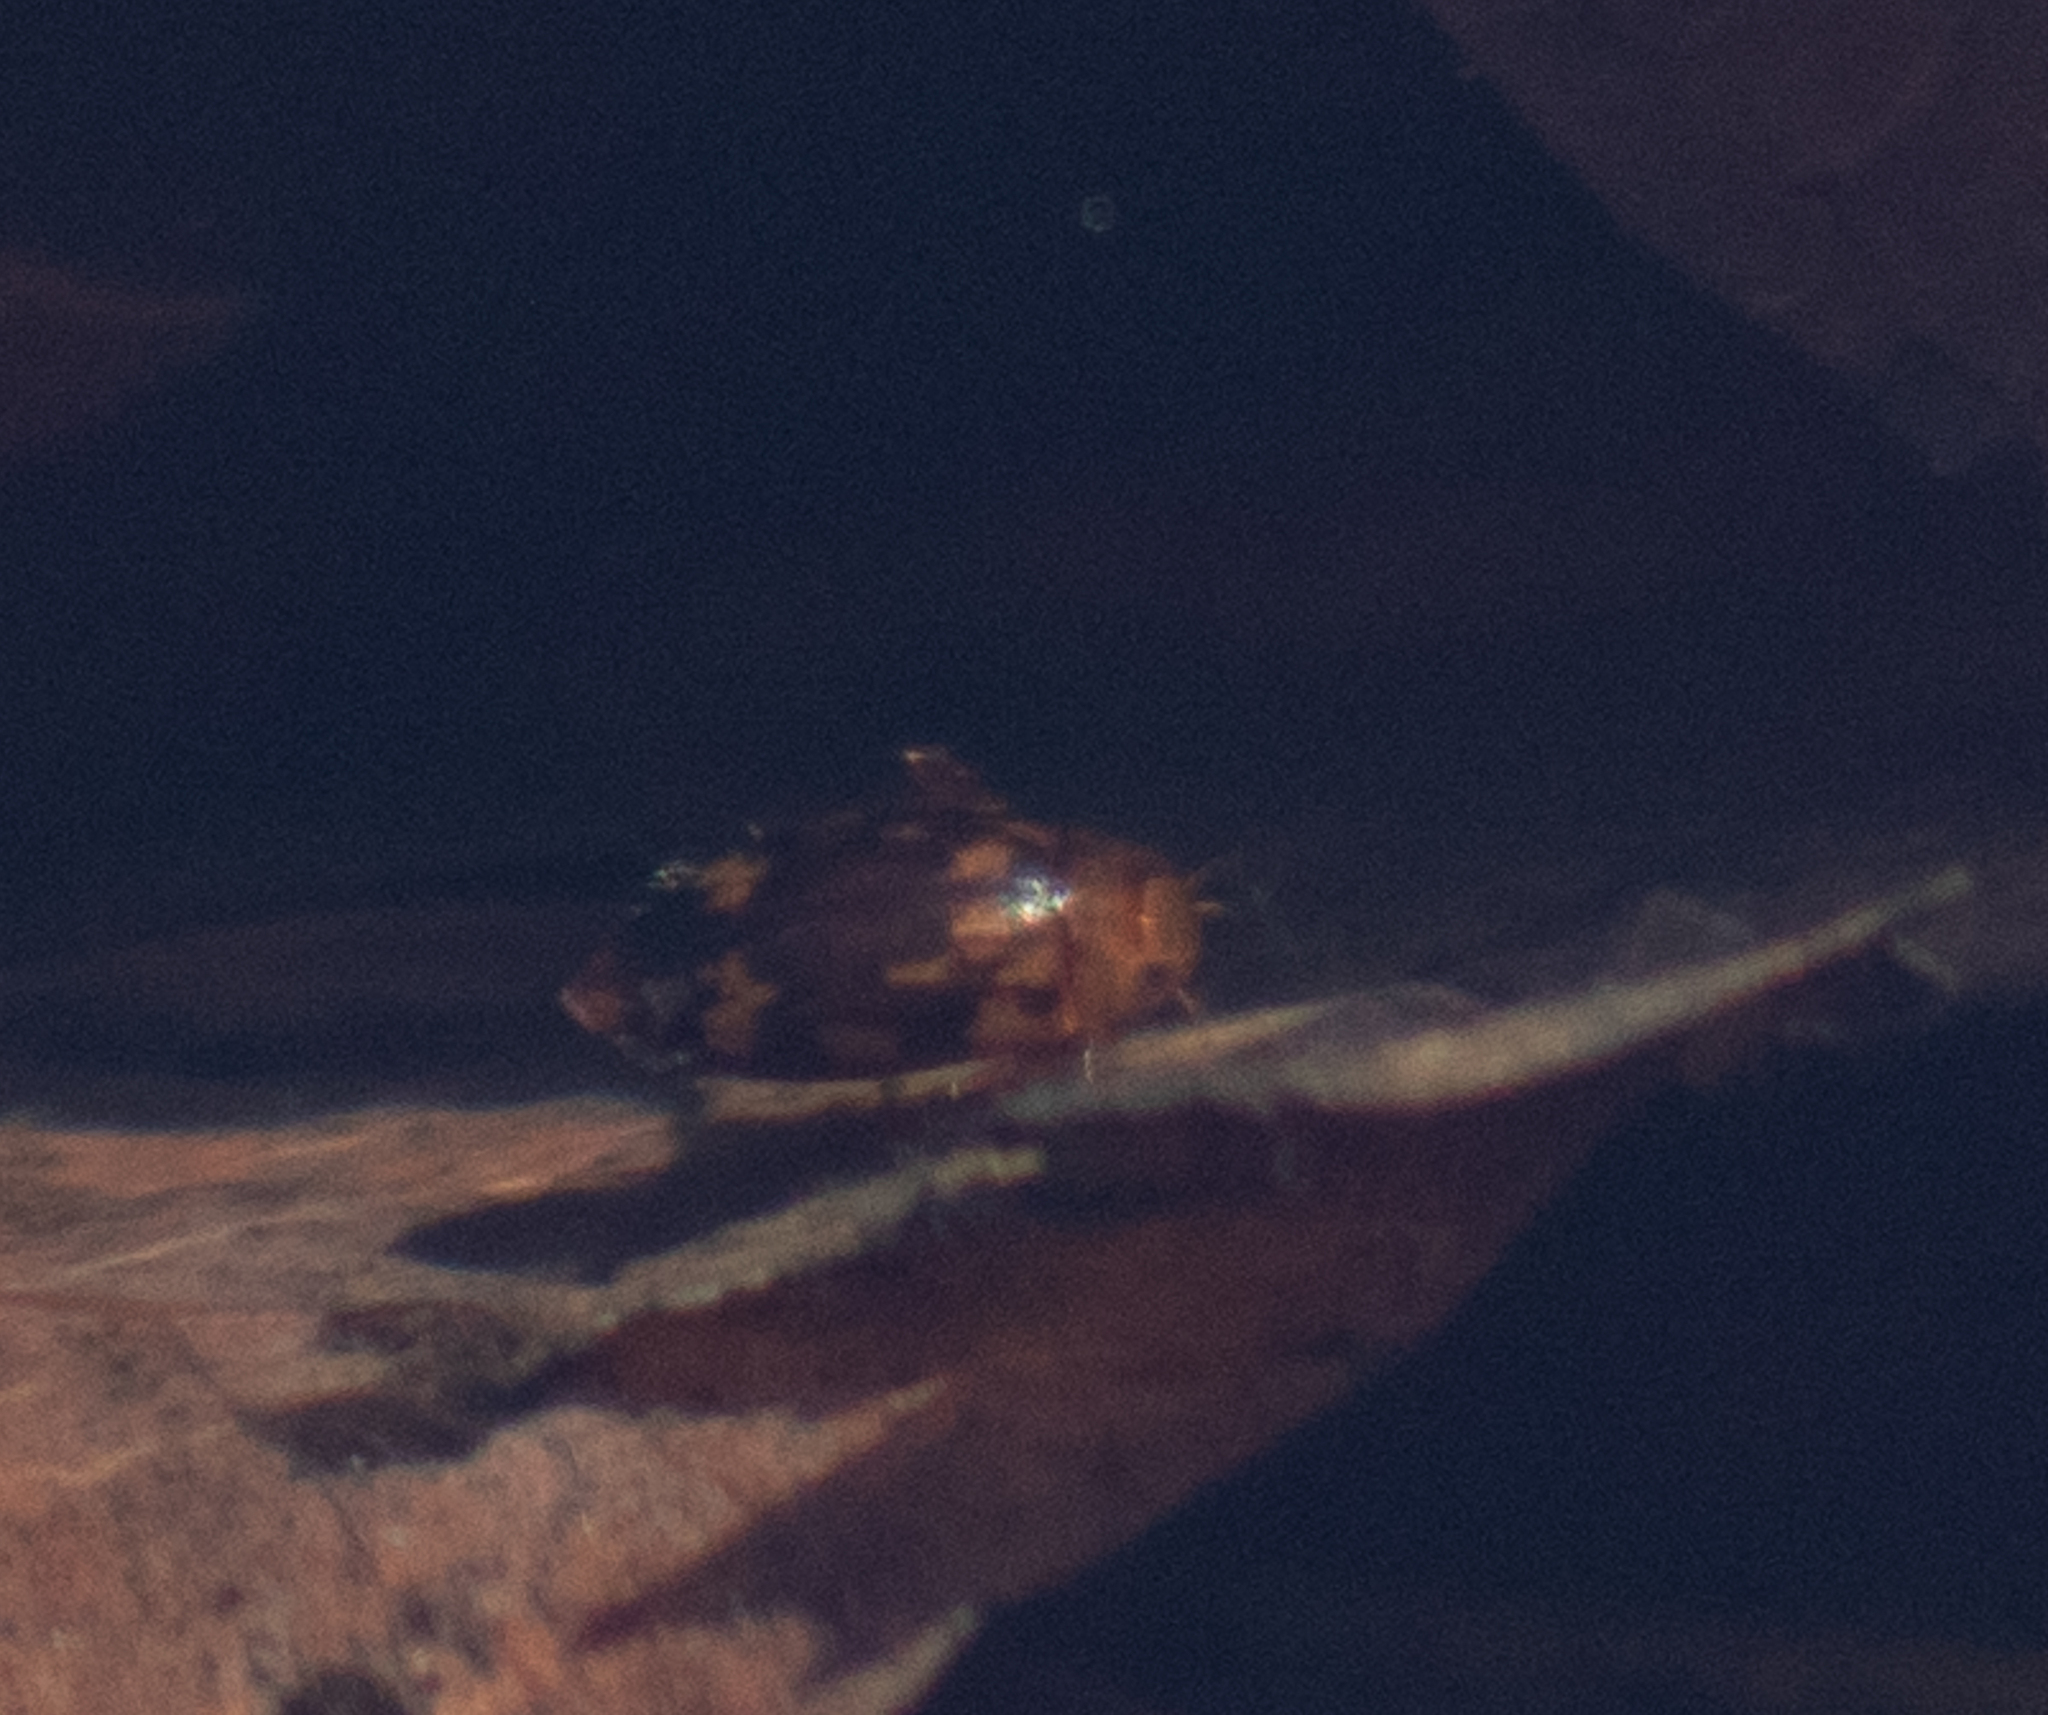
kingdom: Animalia
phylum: Arthropoda
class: Insecta
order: Coleoptera
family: Dytiscidae
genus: Laccophilus
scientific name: Laccophilus undatus
